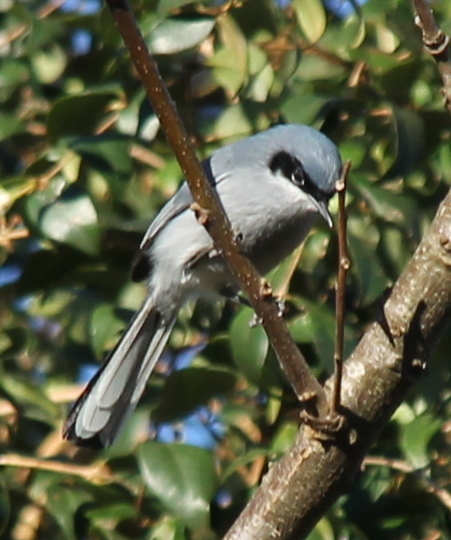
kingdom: Animalia
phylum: Chordata
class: Aves
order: Passeriformes
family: Polioptilidae
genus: Polioptila
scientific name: Polioptila dumicola
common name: Masked gnatcatcher
